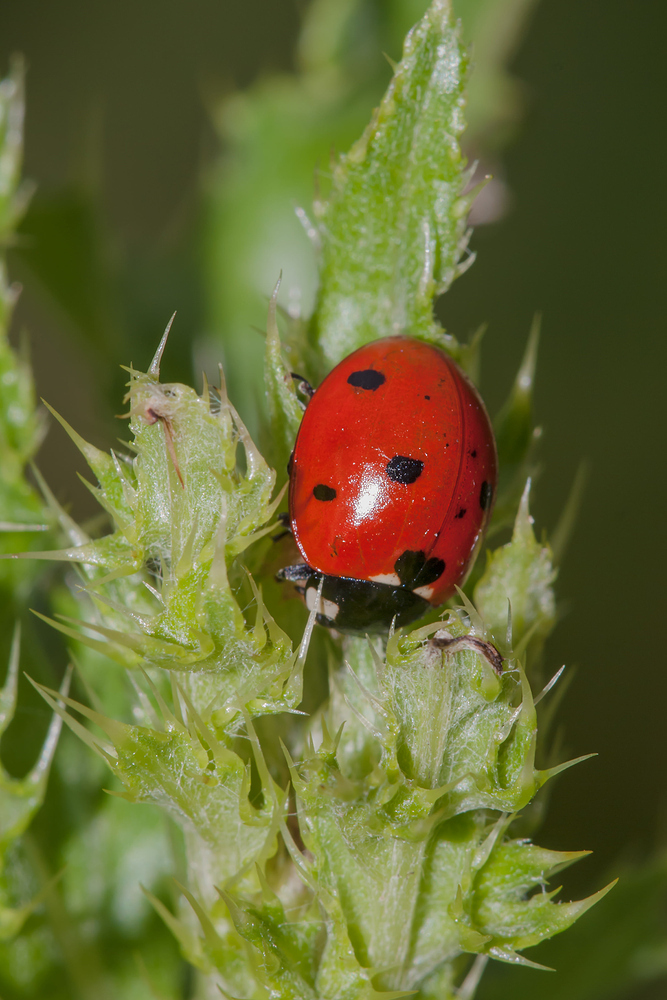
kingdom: Animalia
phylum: Arthropoda
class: Insecta
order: Coleoptera
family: Coccinellidae
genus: Coccinella
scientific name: Coccinella septempunctata
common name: Sevenspotted lady beetle
